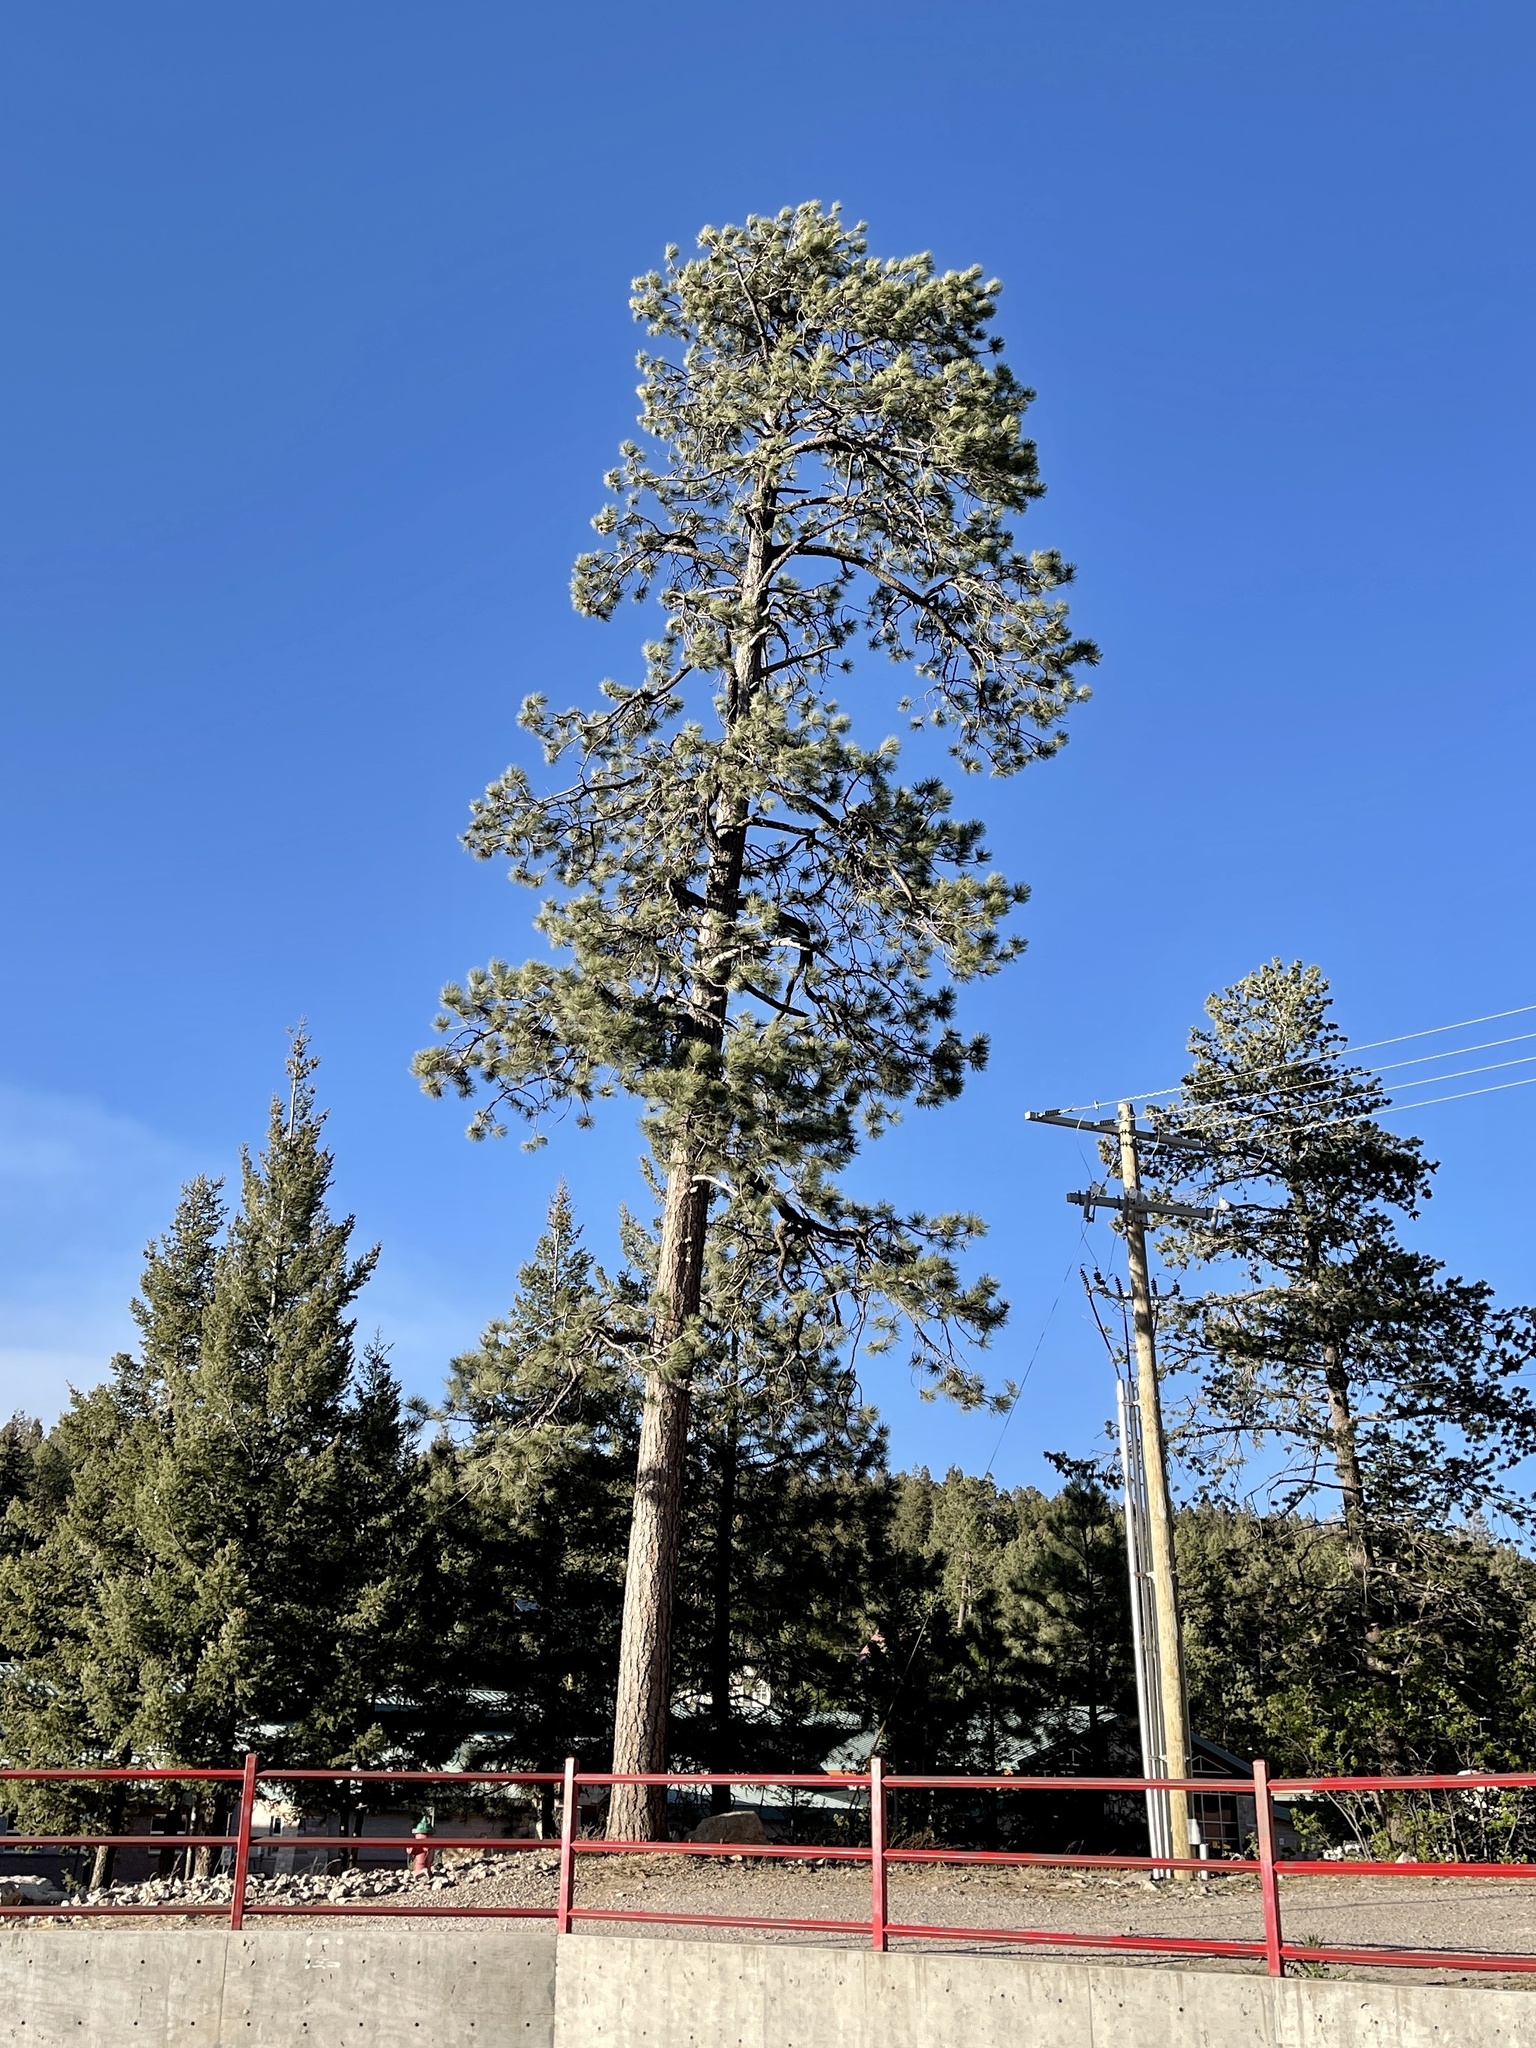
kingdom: Plantae
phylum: Tracheophyta
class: Pinopsida
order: Pinales
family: Pinaceae
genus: Pinus
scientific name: Pinus ponderosa
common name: Western yellow-pine
